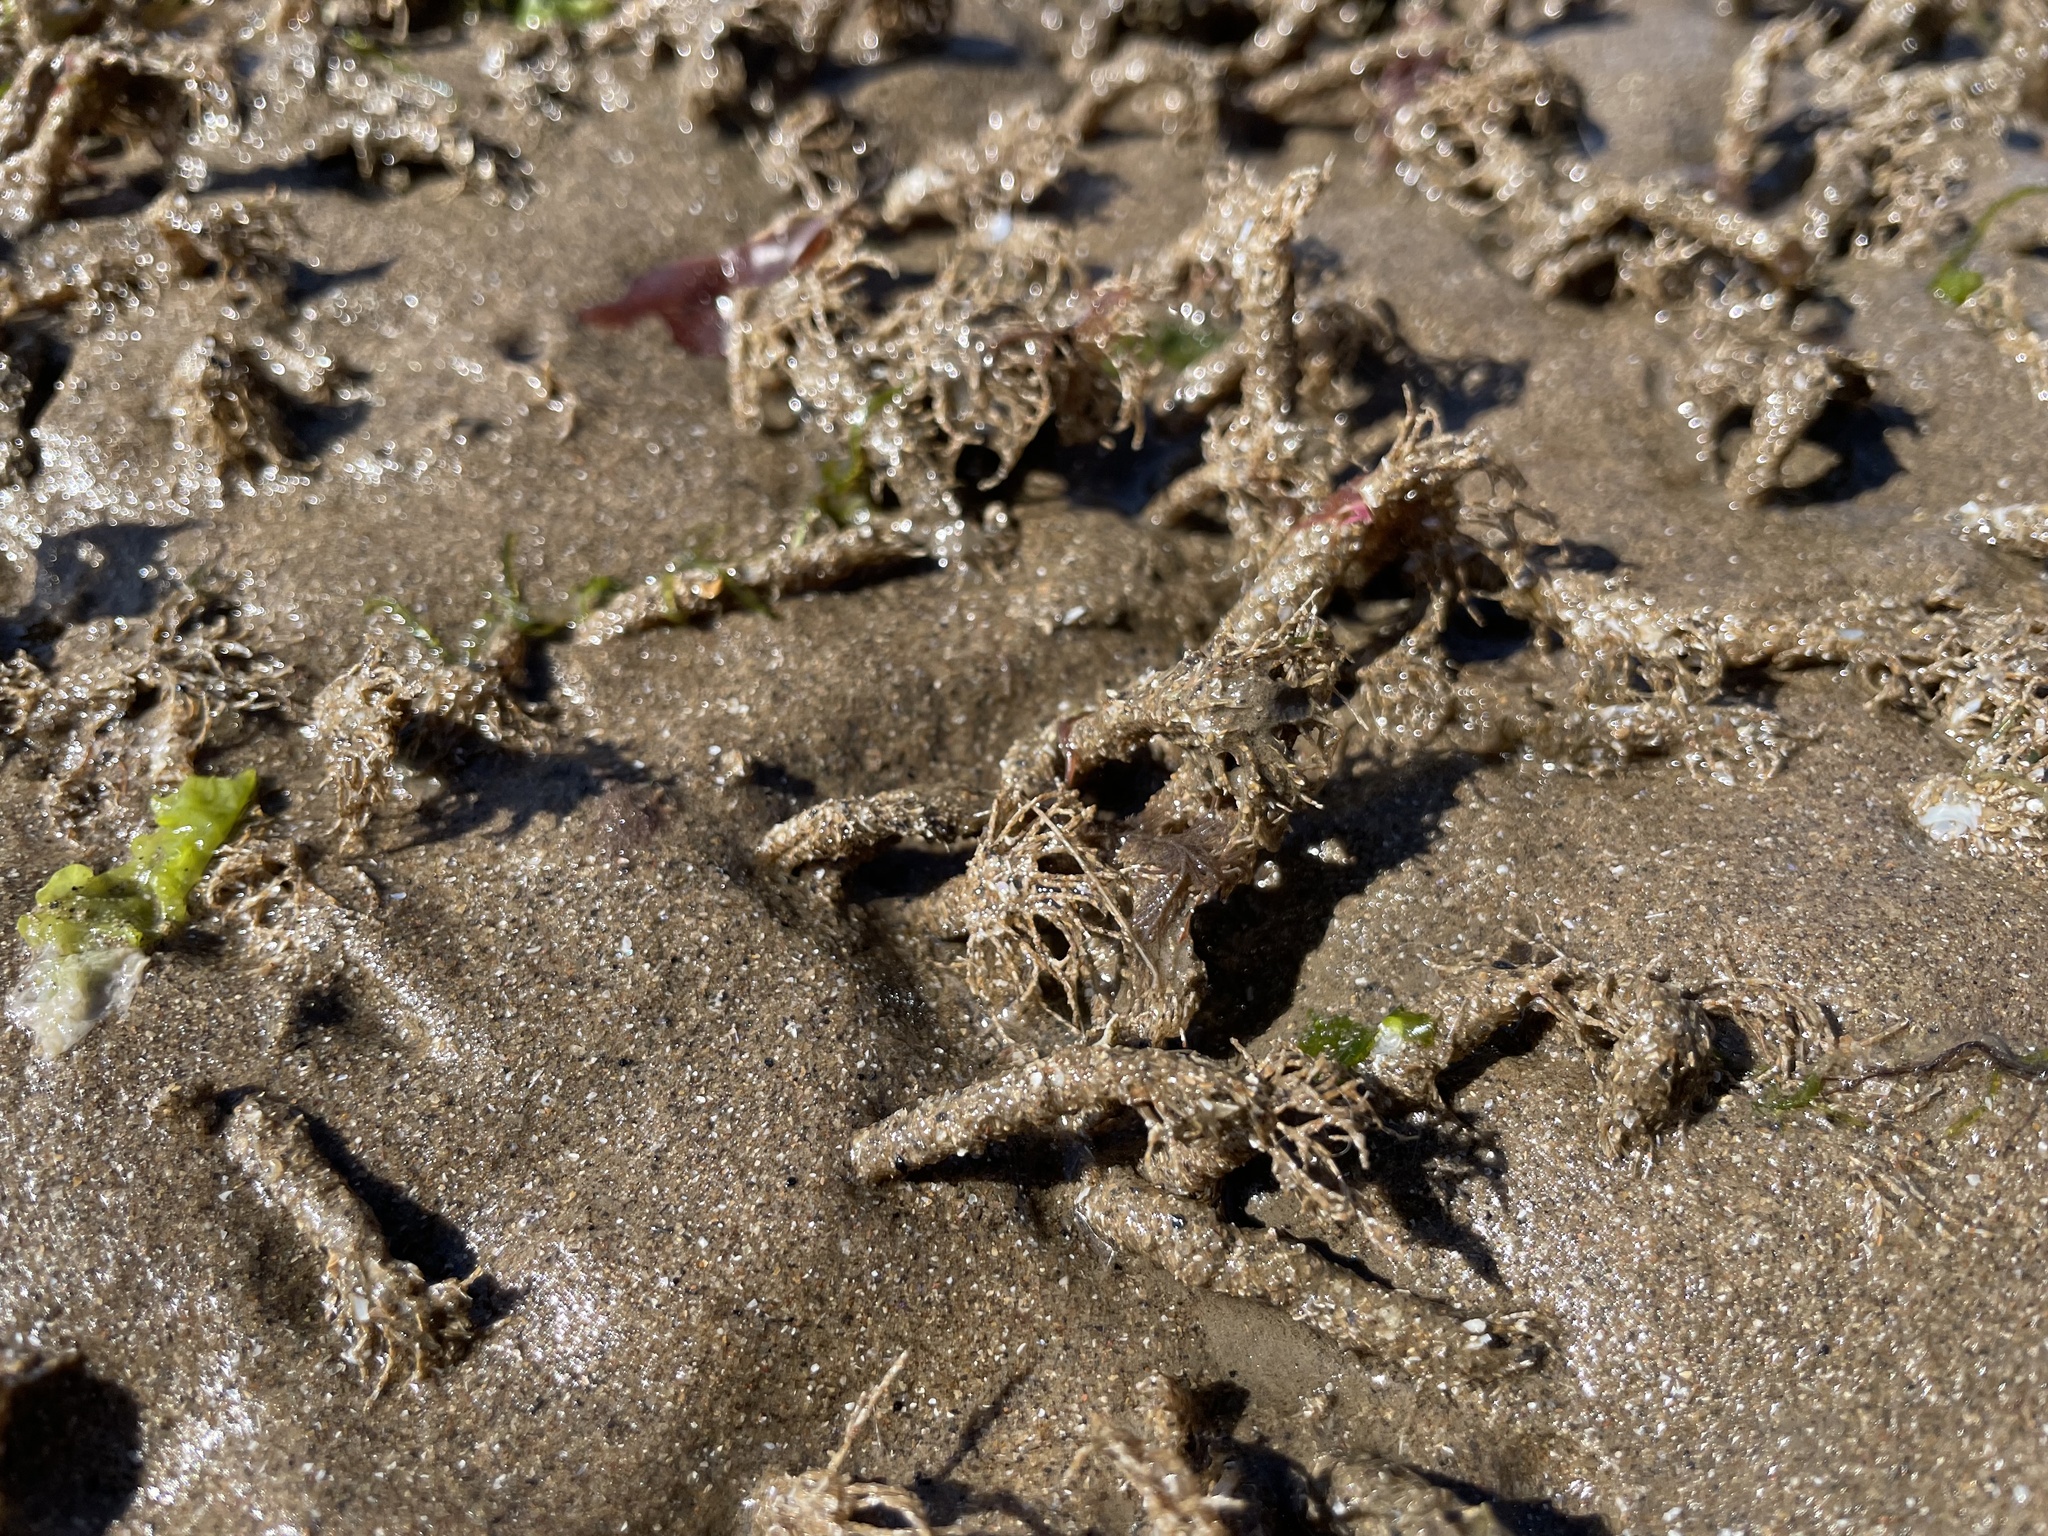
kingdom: Animalia
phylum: Annelida
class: Polychaeta
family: Terebellidae
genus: Lanice
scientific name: Lanice conchilega
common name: Sand mason
